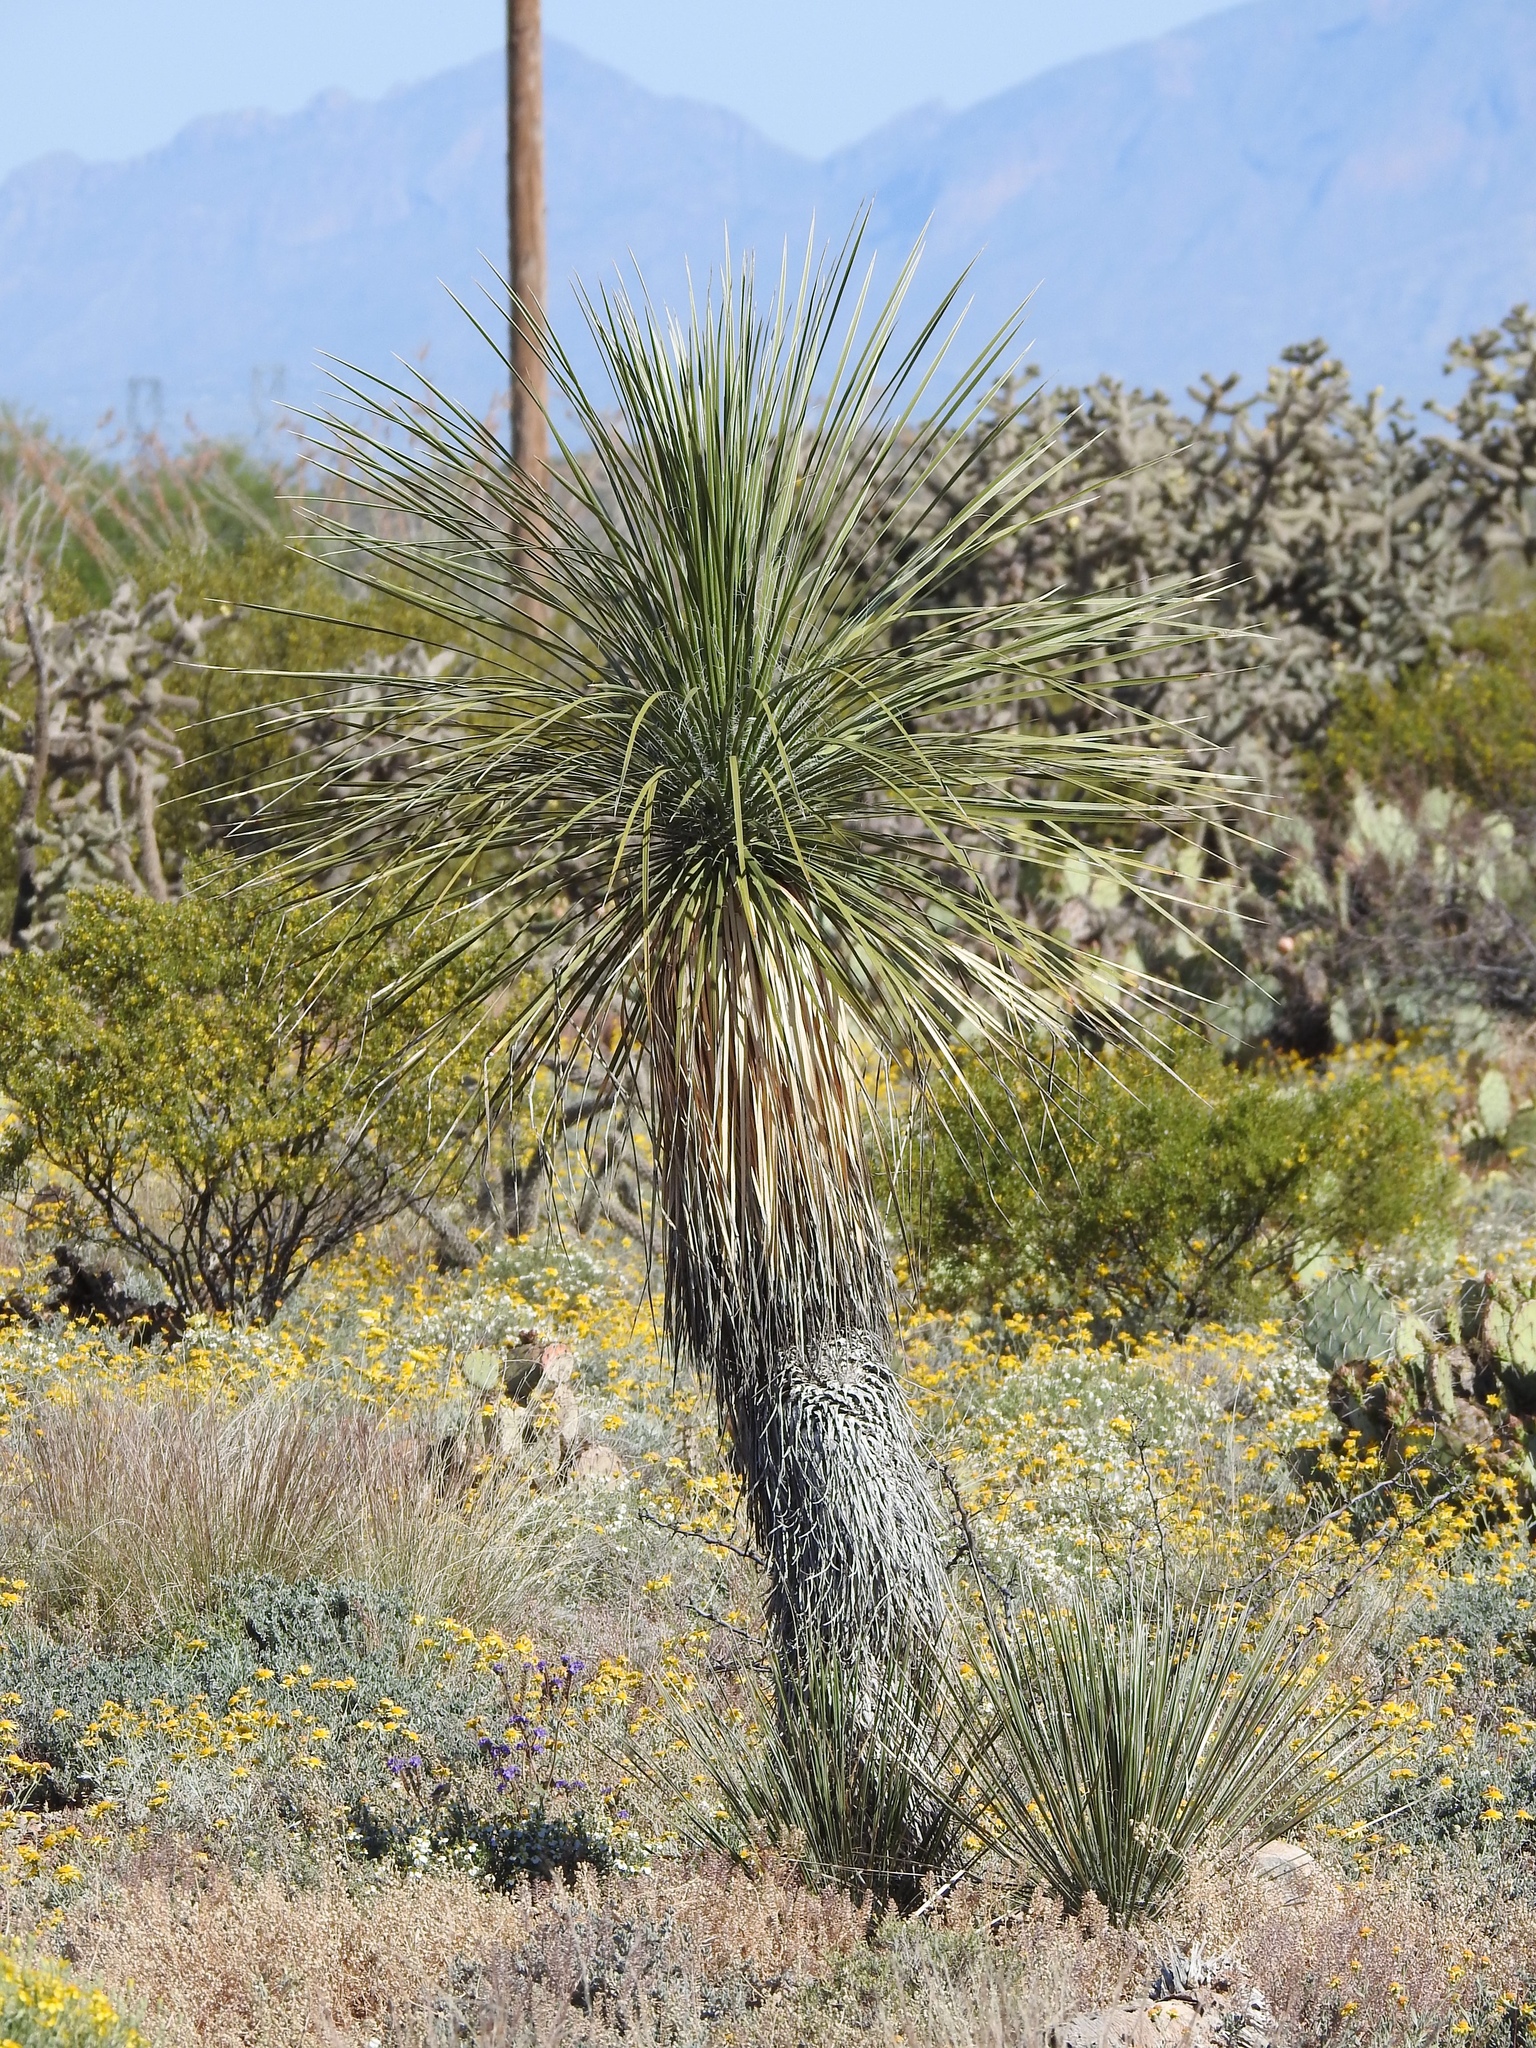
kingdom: Plantae
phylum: Tracheophyta
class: Liliopsida
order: Asparagales
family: Asparagaceae
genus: Yucca
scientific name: Yucca elata
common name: Palmella
